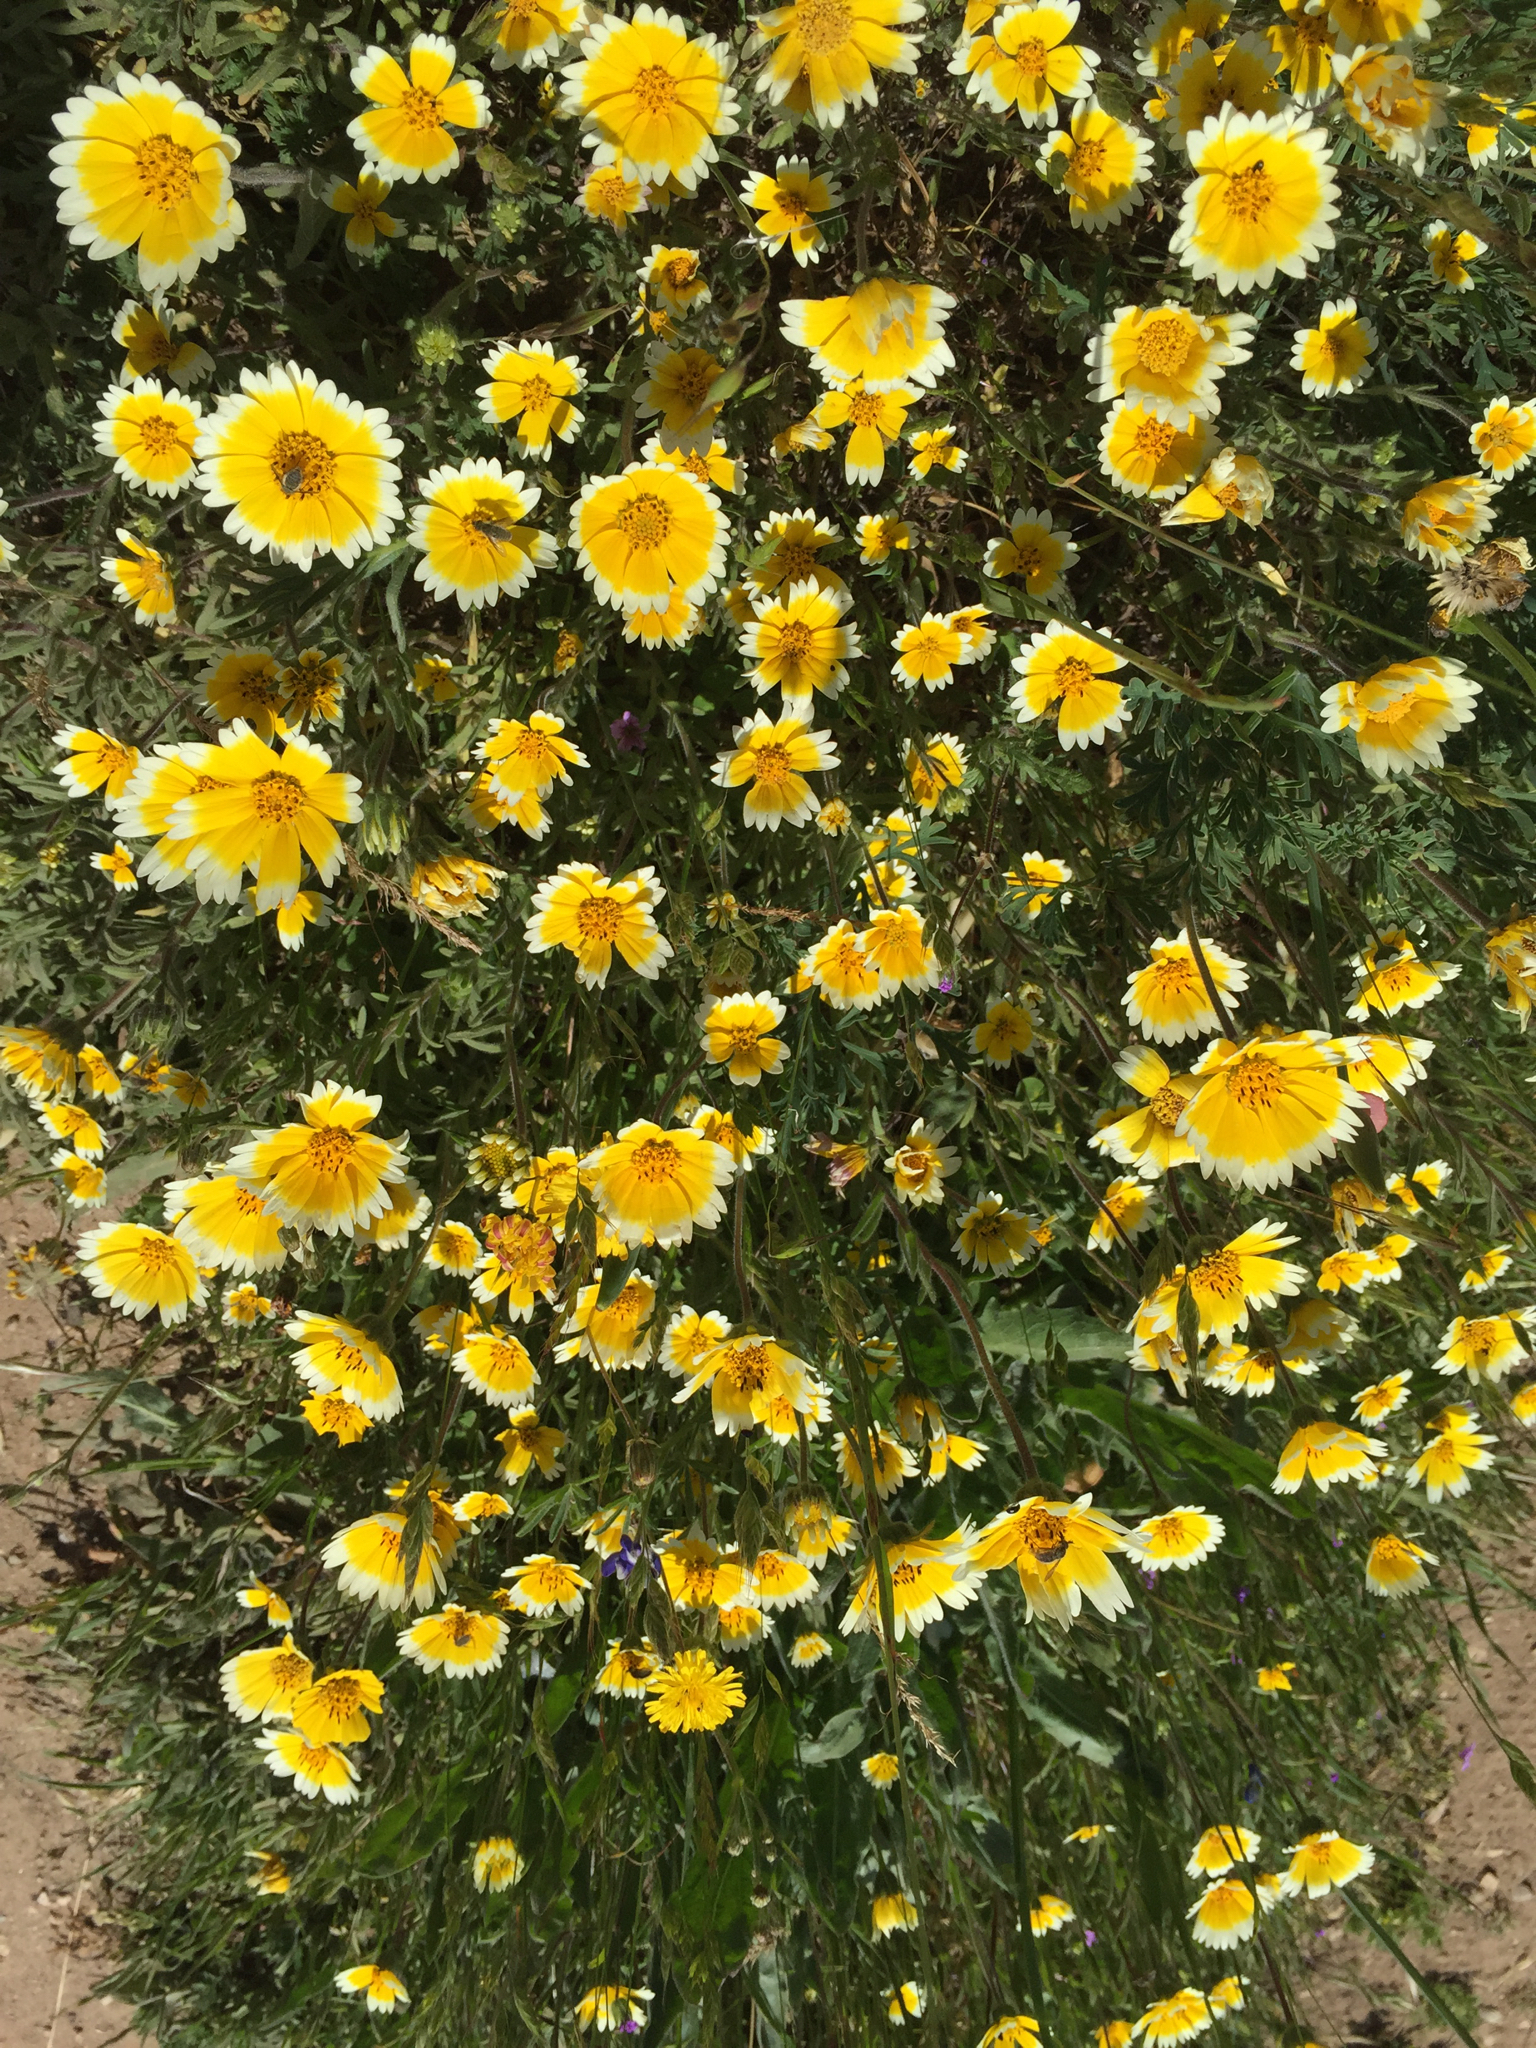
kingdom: Plantae
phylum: Tracheophyta
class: Magnoliopsida
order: Asterales
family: Asteraceae
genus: Layia
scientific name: Layia platyglossa
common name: Tidy-tips
